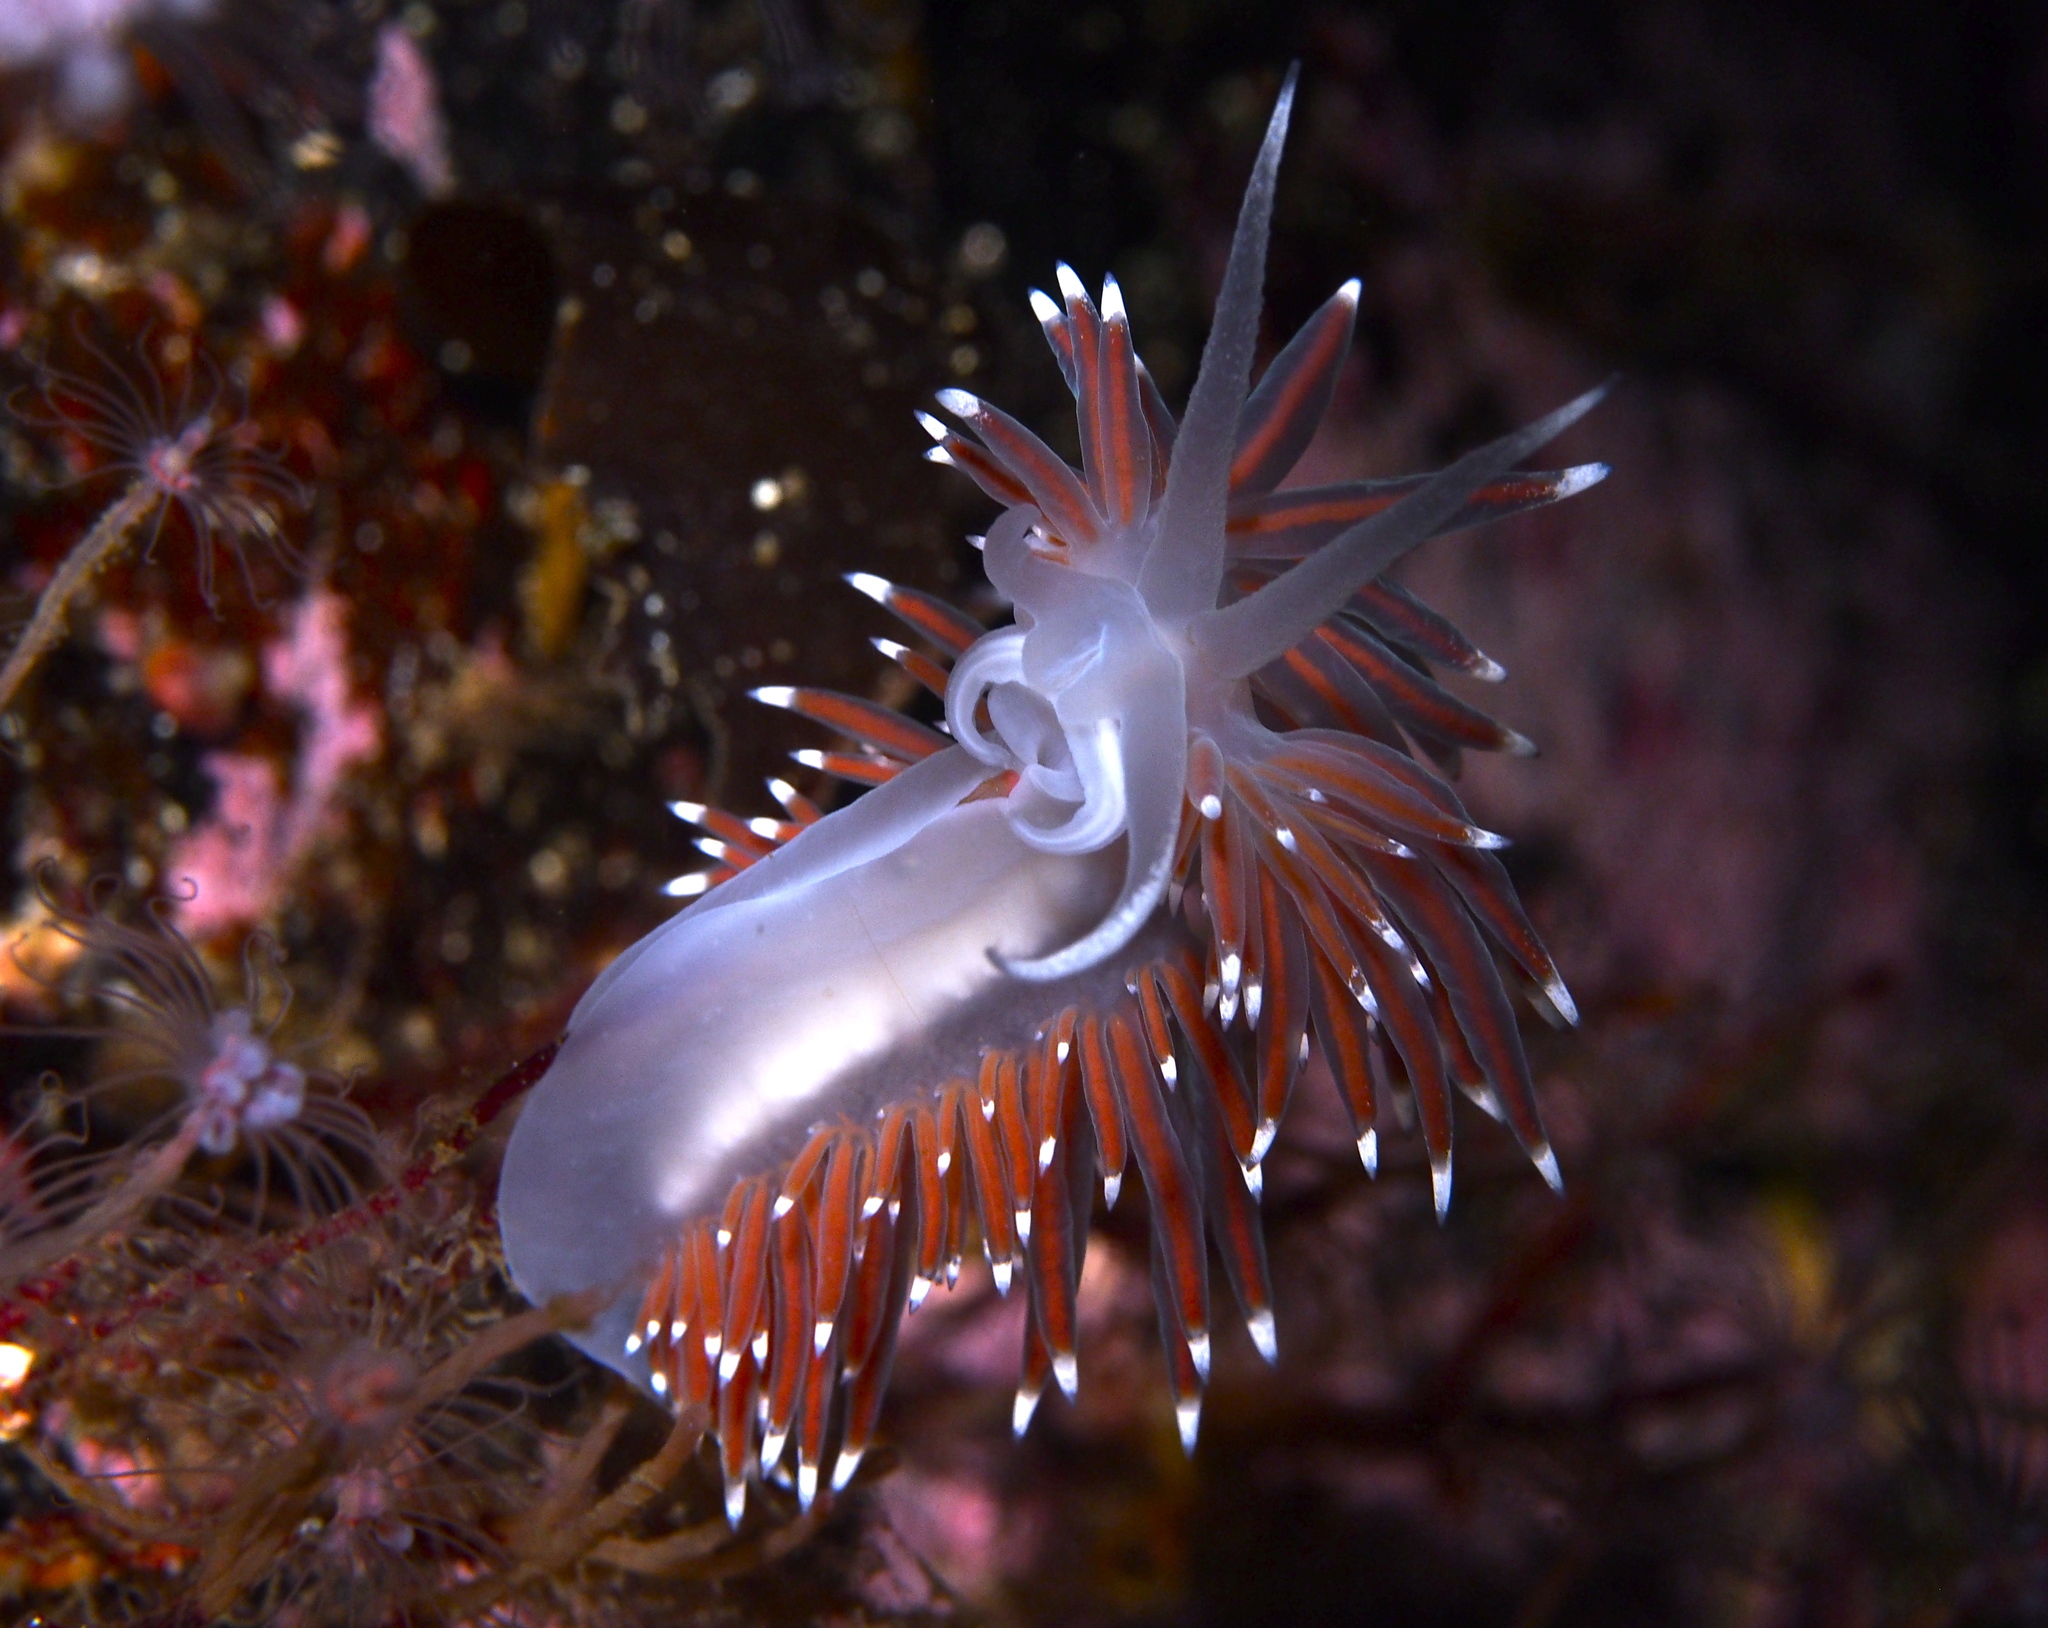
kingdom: Animalia
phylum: Mollusca
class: Gastropoda
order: Nudibranchia
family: Coryphellidae
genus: Coryphella
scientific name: Coryphella browni
